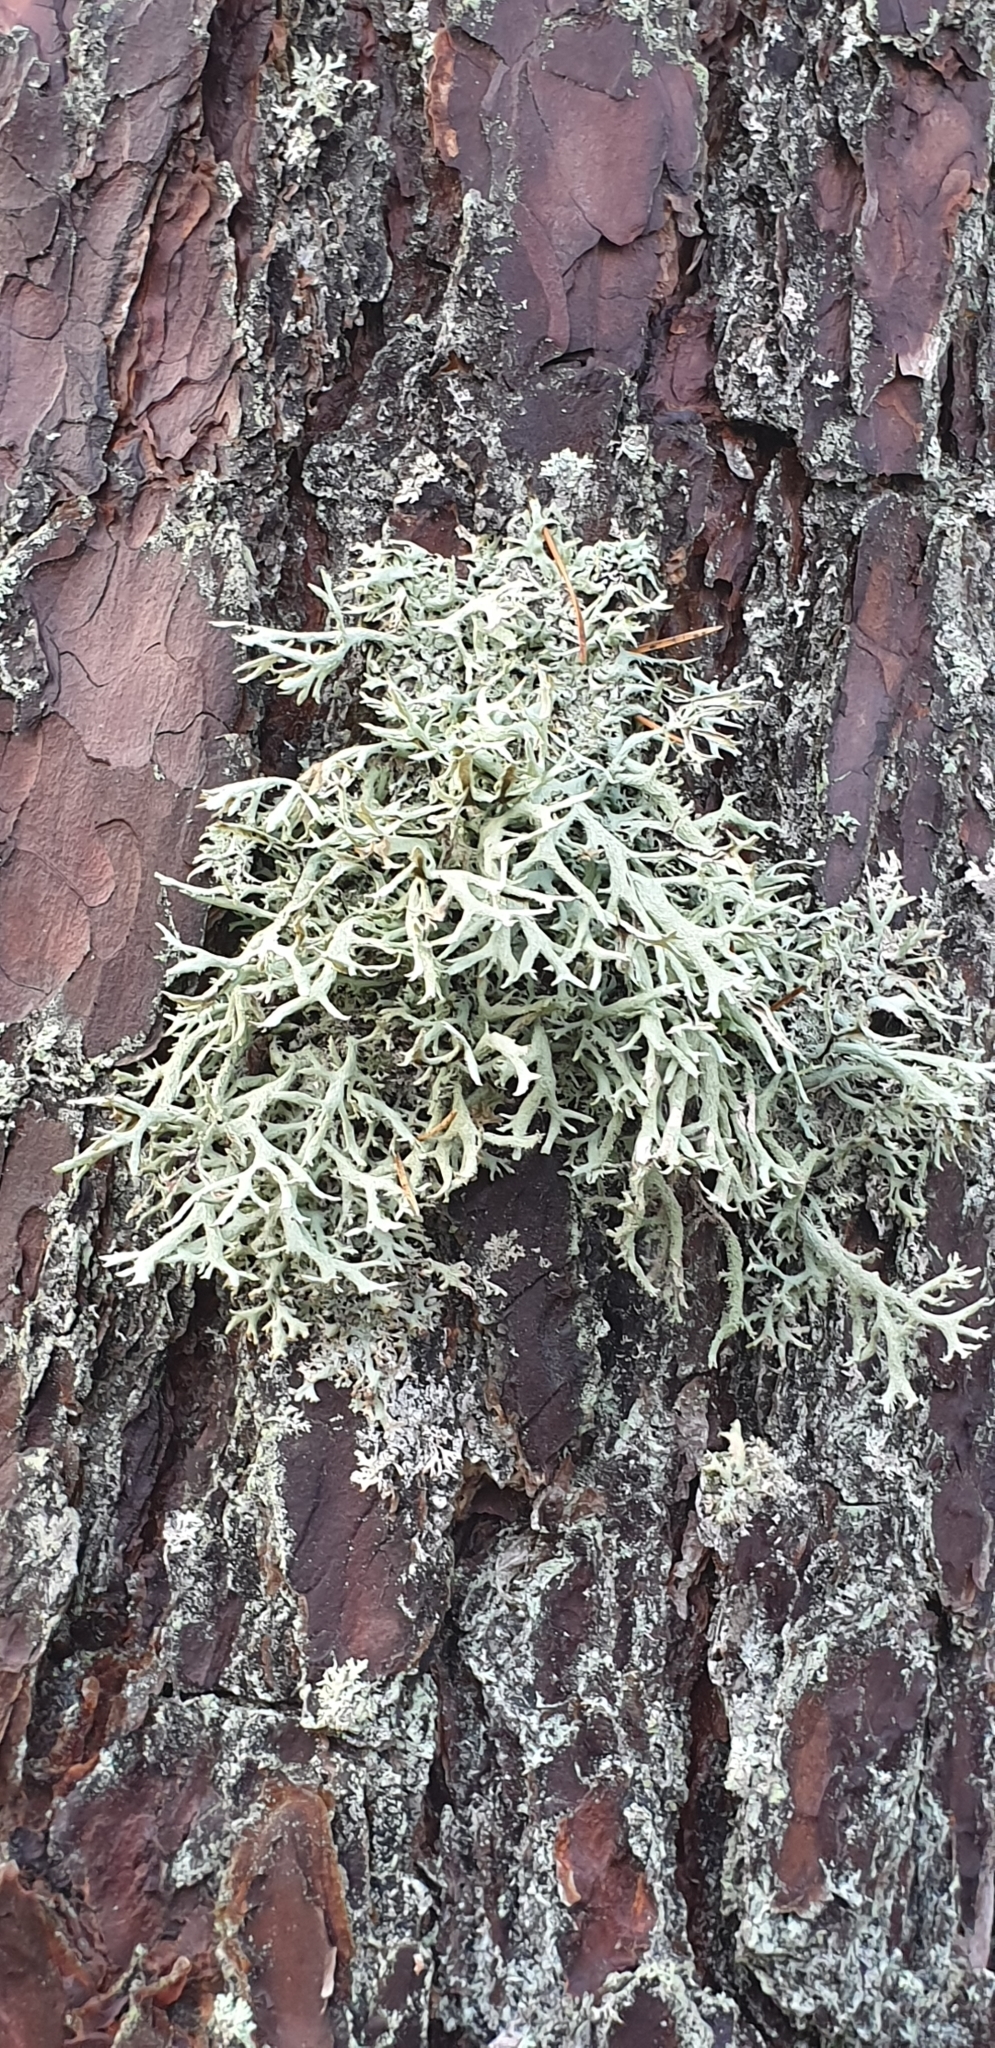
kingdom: Fungi
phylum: Ascomycota
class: Lecanoromycetes
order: Lecanorales
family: Parmeliaceae
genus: Pseudevernia
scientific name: Pseudevernia furfuracea
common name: Tree moss
